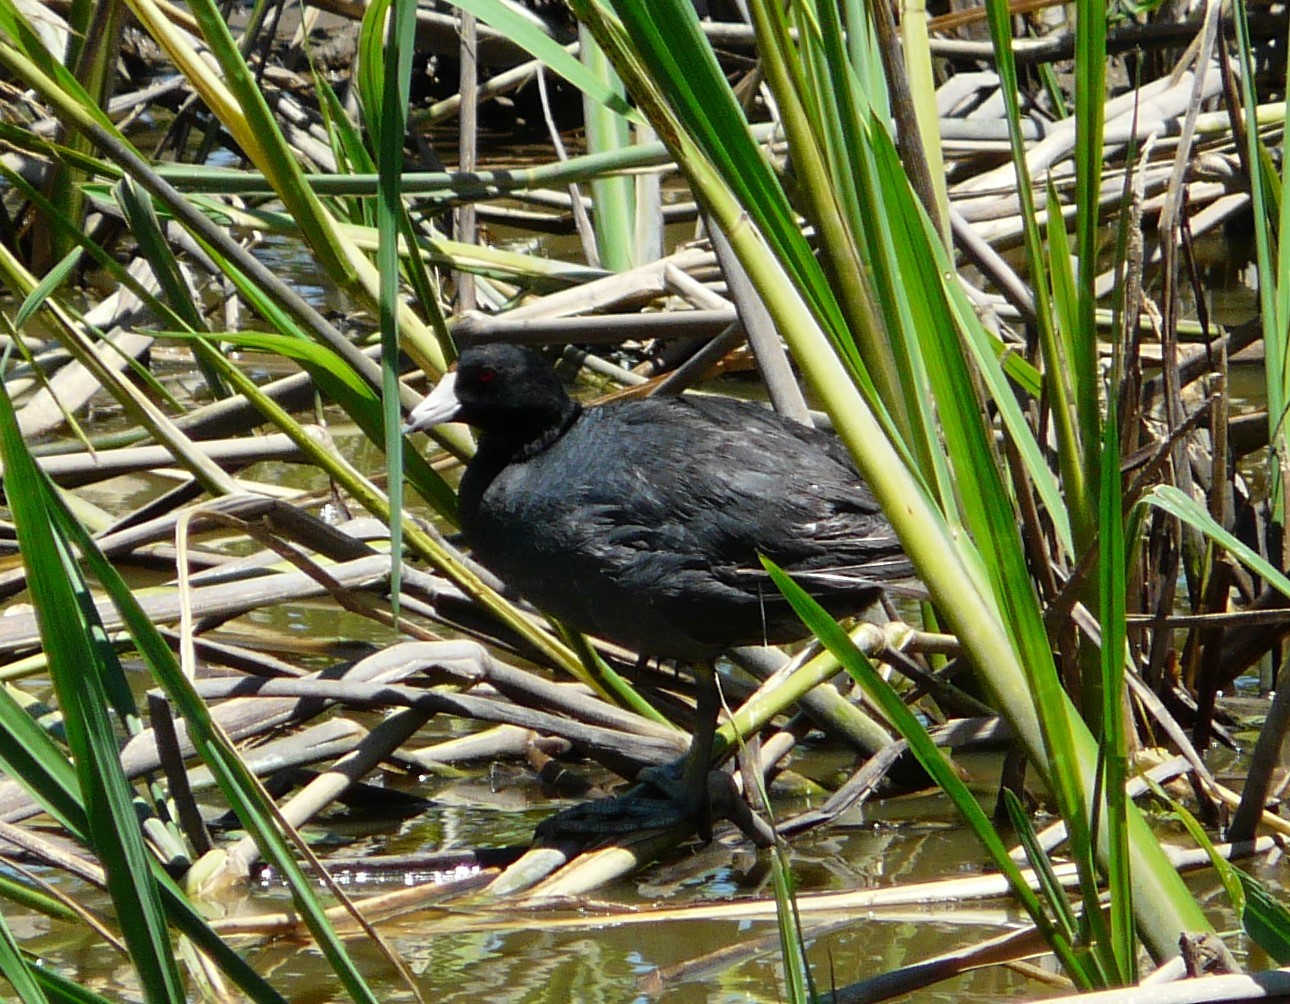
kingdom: Animalia
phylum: Chordata
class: Aves
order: Gruiformes
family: Rallidae
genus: Fulica
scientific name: Fulica americana
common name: American coot
